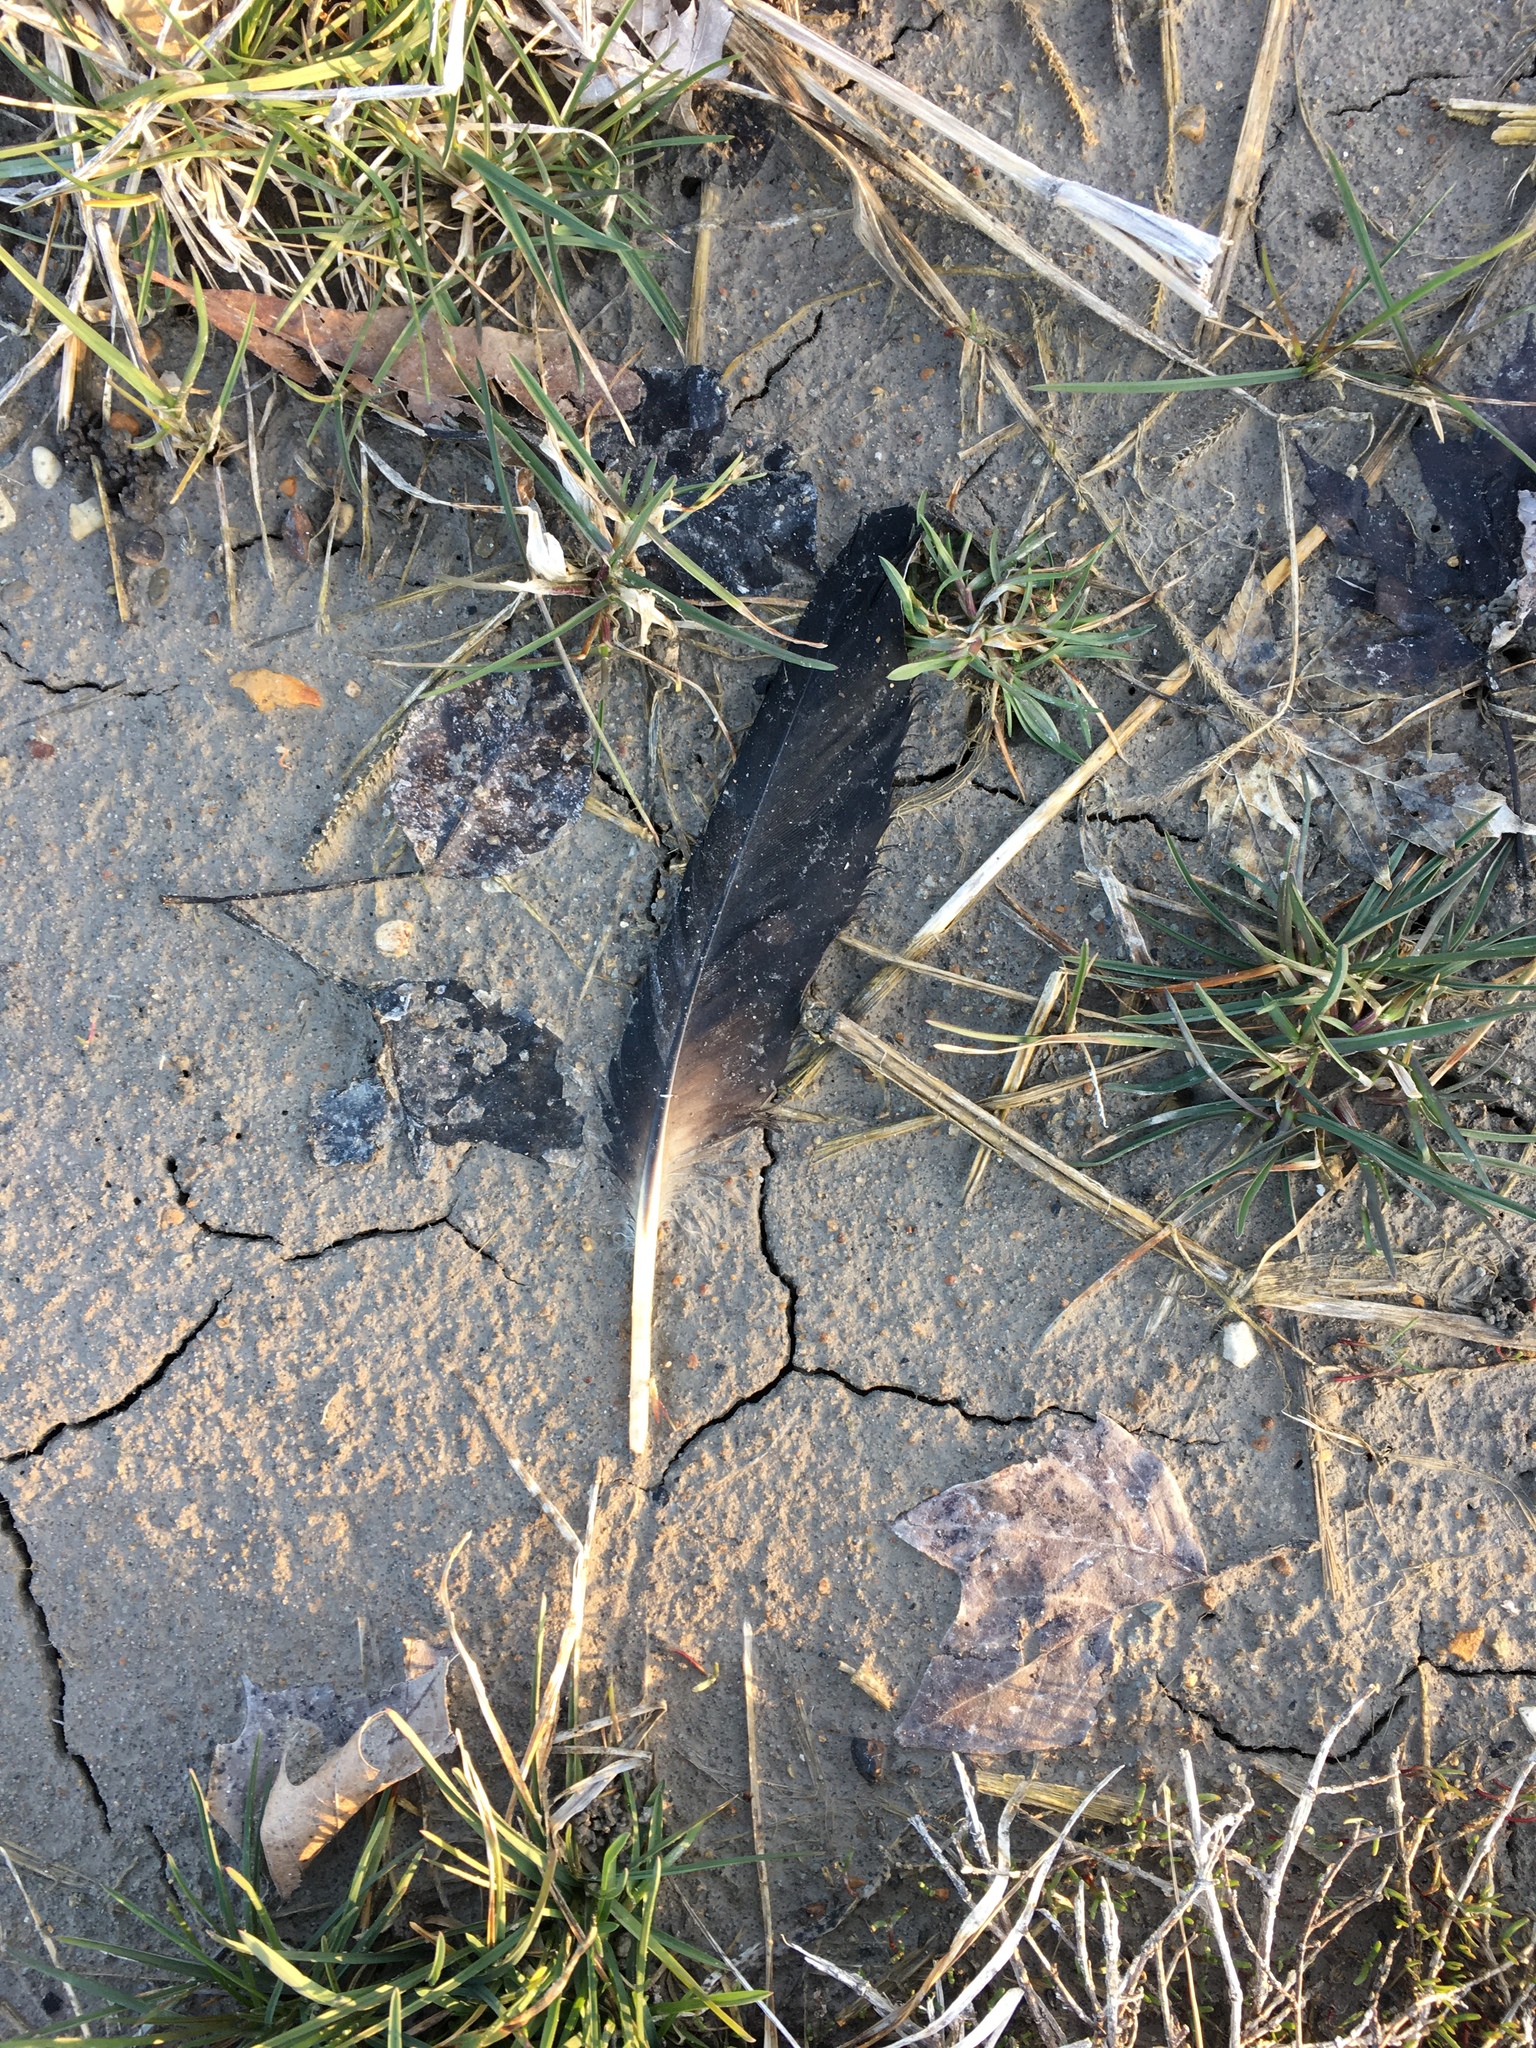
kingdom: Animalia
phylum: Chordata
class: Aves
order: Anseriformes
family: Anatidae
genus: Branta
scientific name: Branta canadensis
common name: Canada goose
